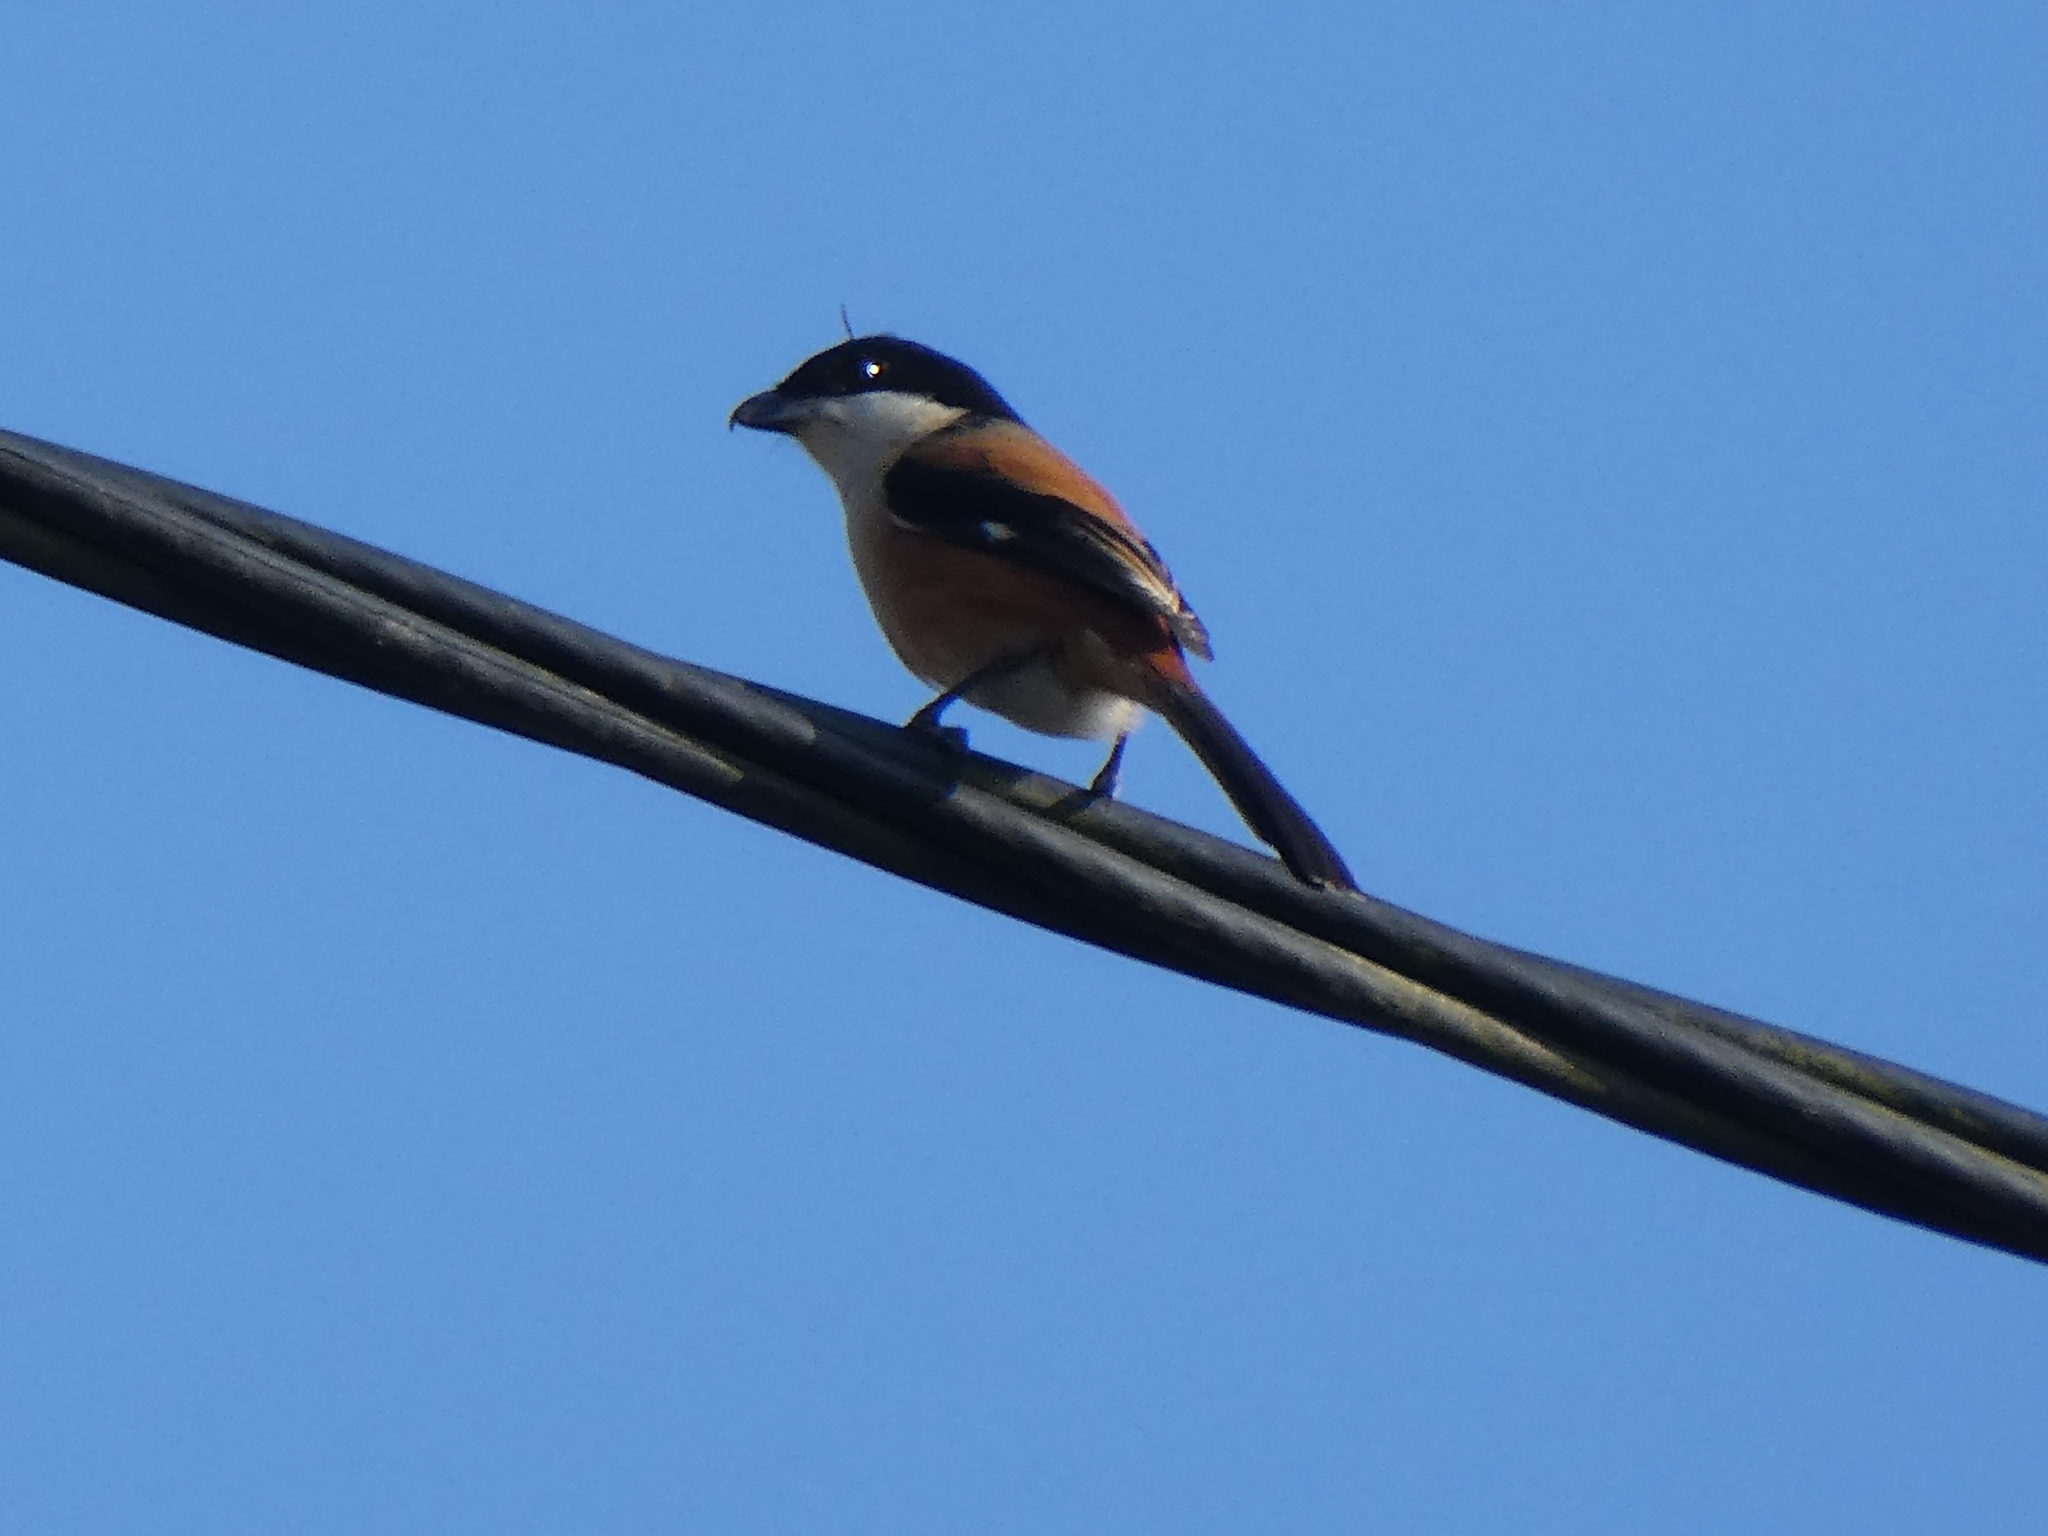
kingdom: Animalia
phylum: Chordata
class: Aves
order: Passeriformes
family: Laniidae
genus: Lanius
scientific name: Lanius schach
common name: Long-tailed shrike
